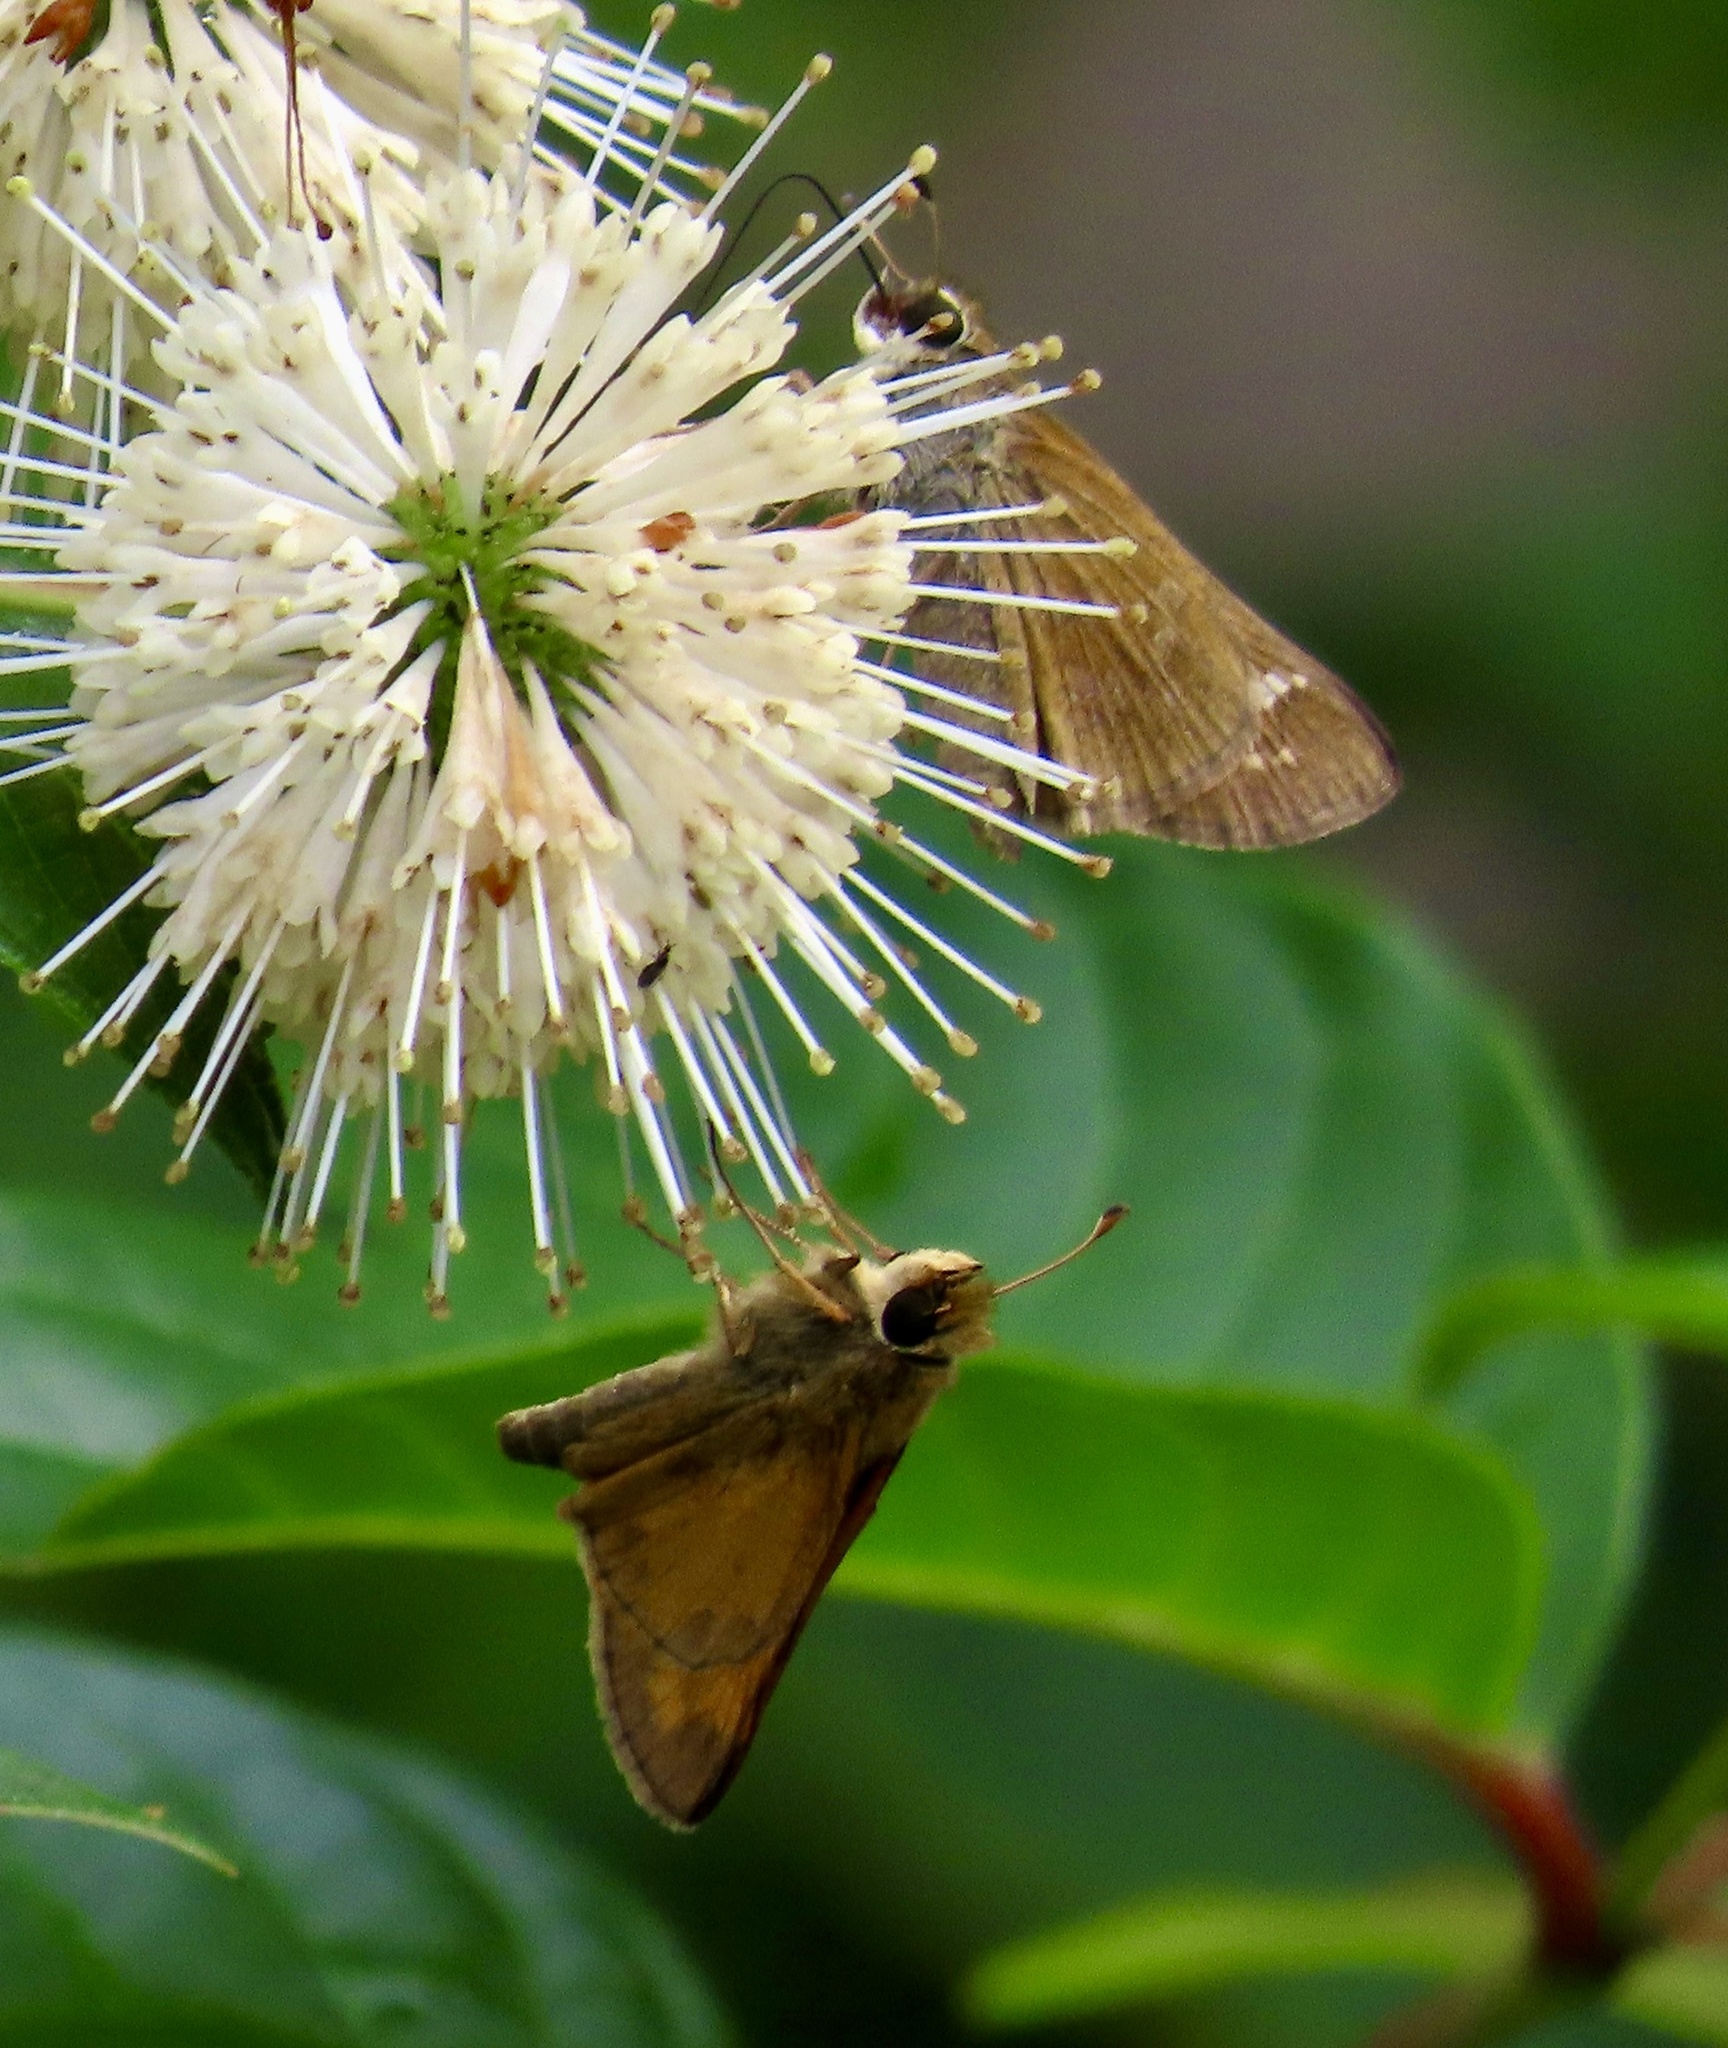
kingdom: Animalia
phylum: Arthropoda
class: Insecta
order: Lepidoptera
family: Hesperiidae
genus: Atalopedes
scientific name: Atalopedes
